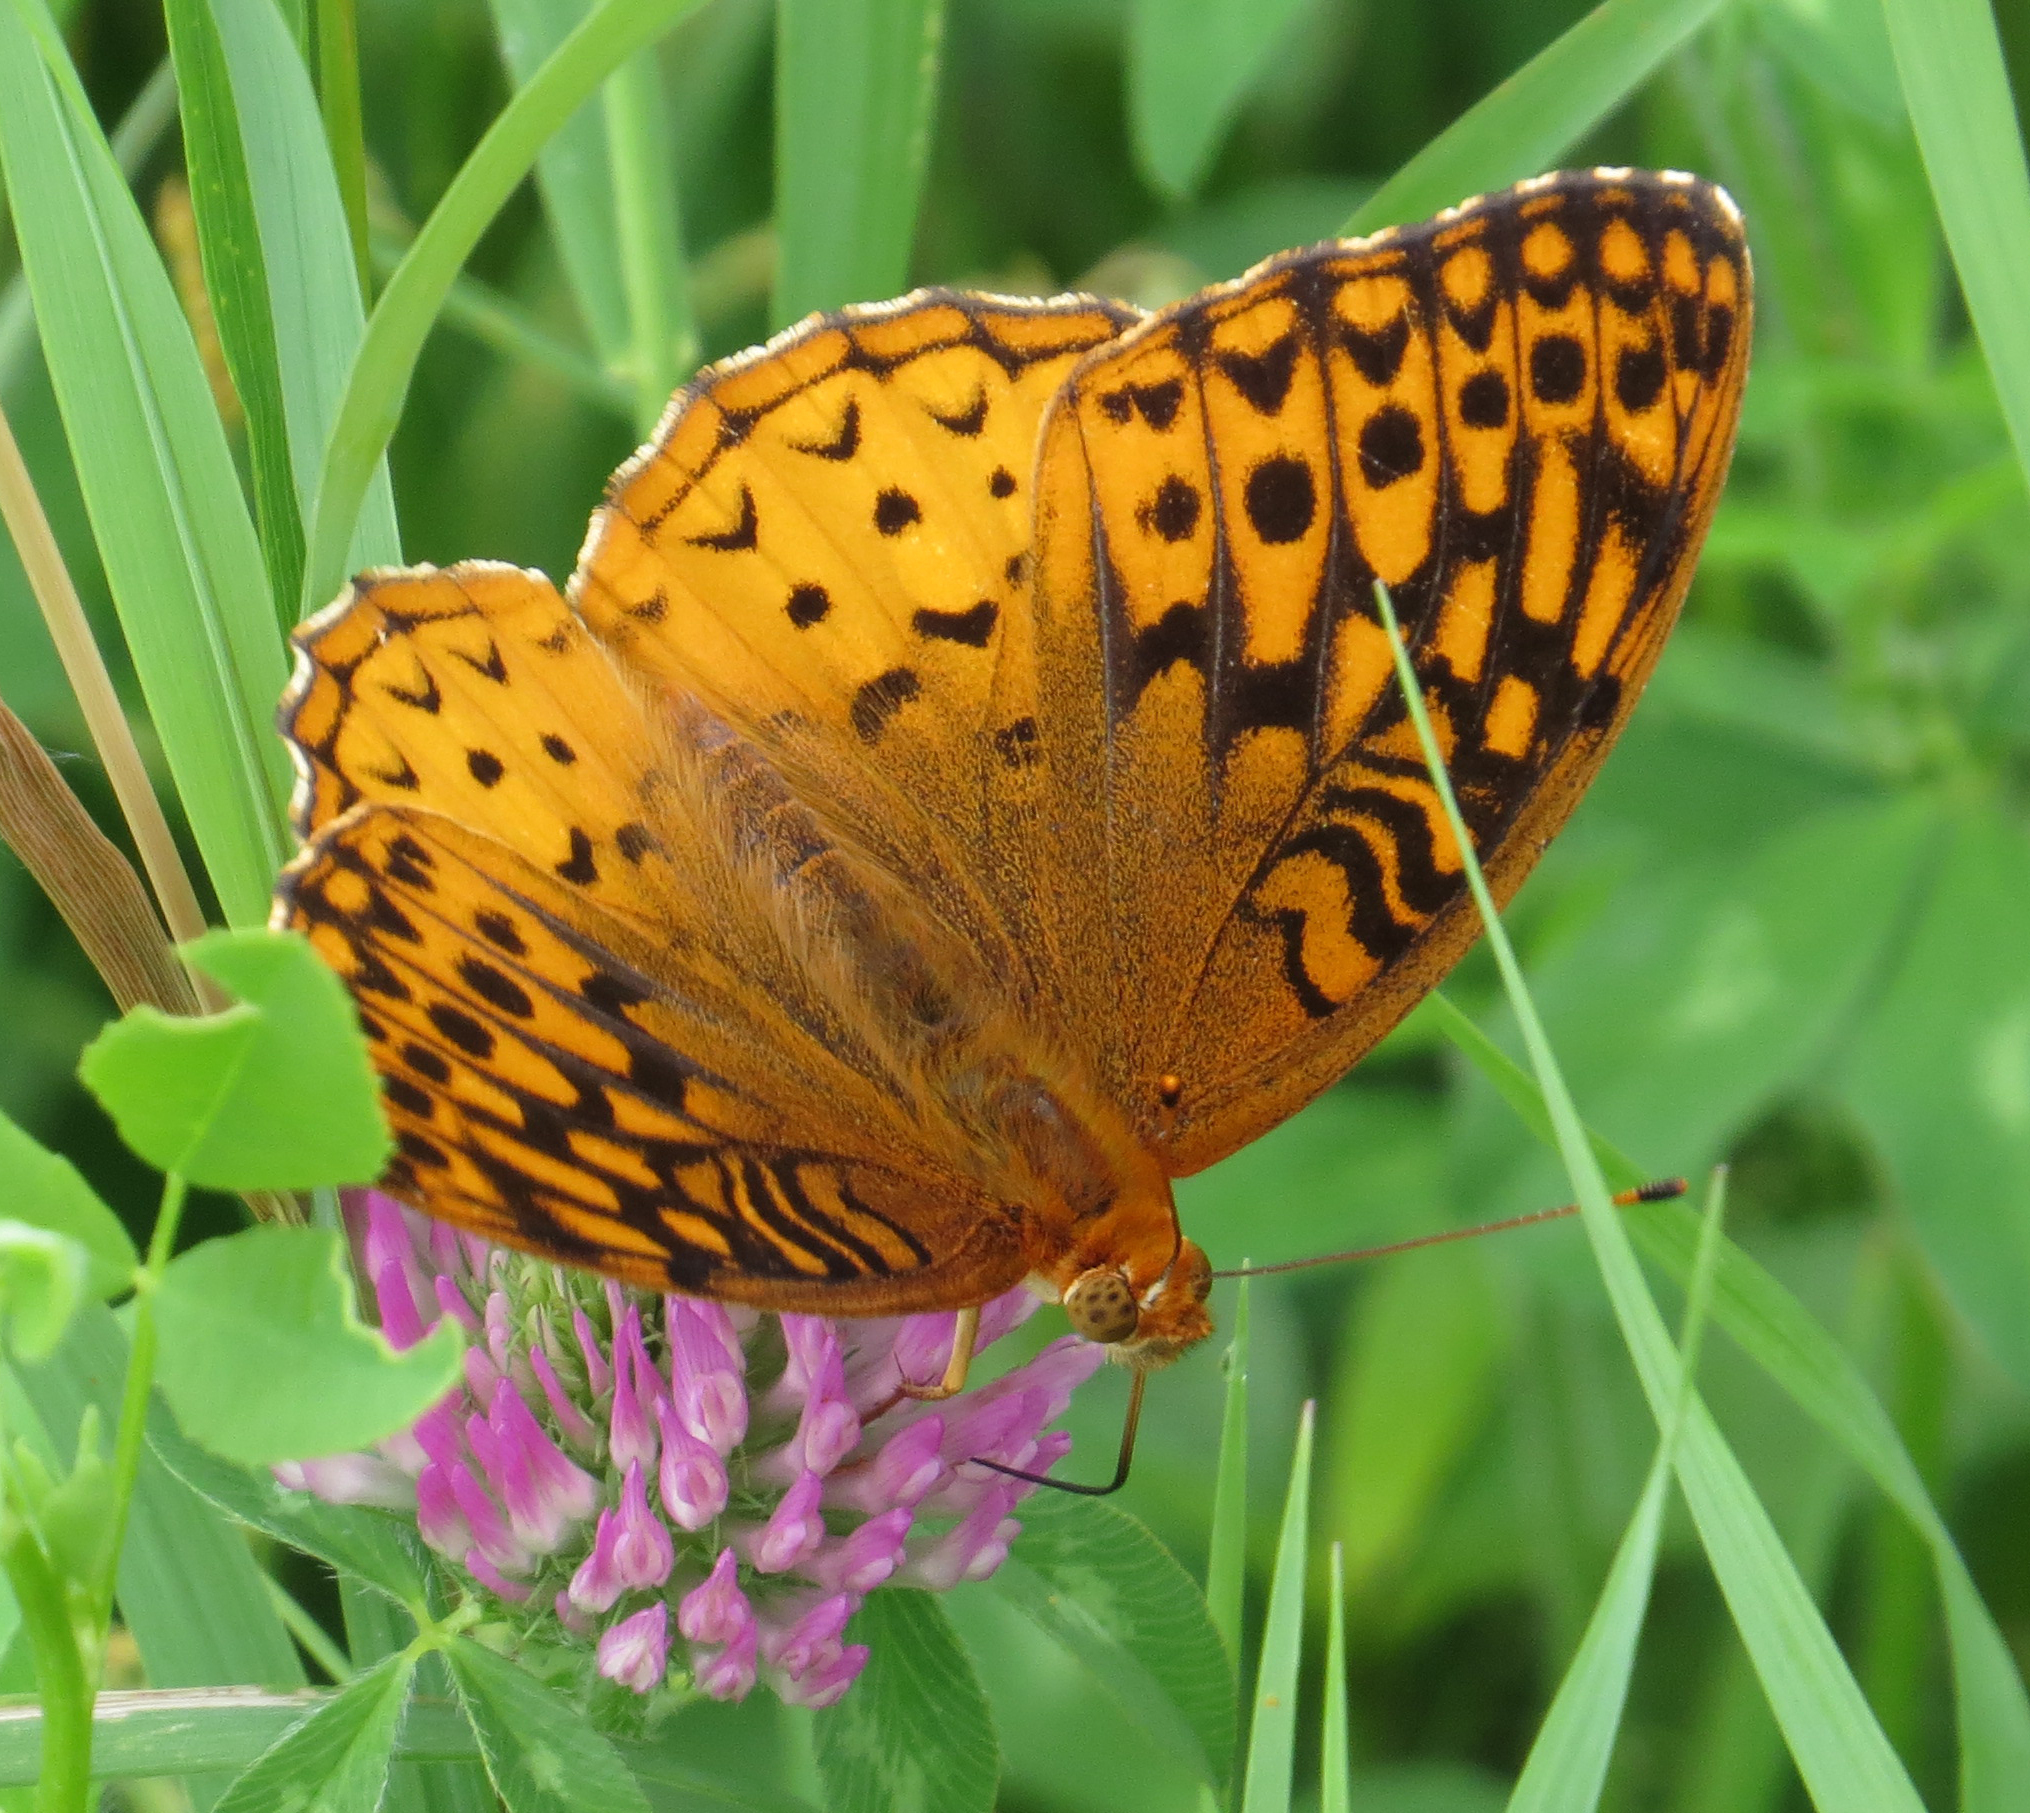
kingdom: Animalia
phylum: Arthropoda
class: Insecta
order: Lepidoptera
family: Nymphalidae
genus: Speyeria
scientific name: Speyeria cybele
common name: Great spangled fritillary
